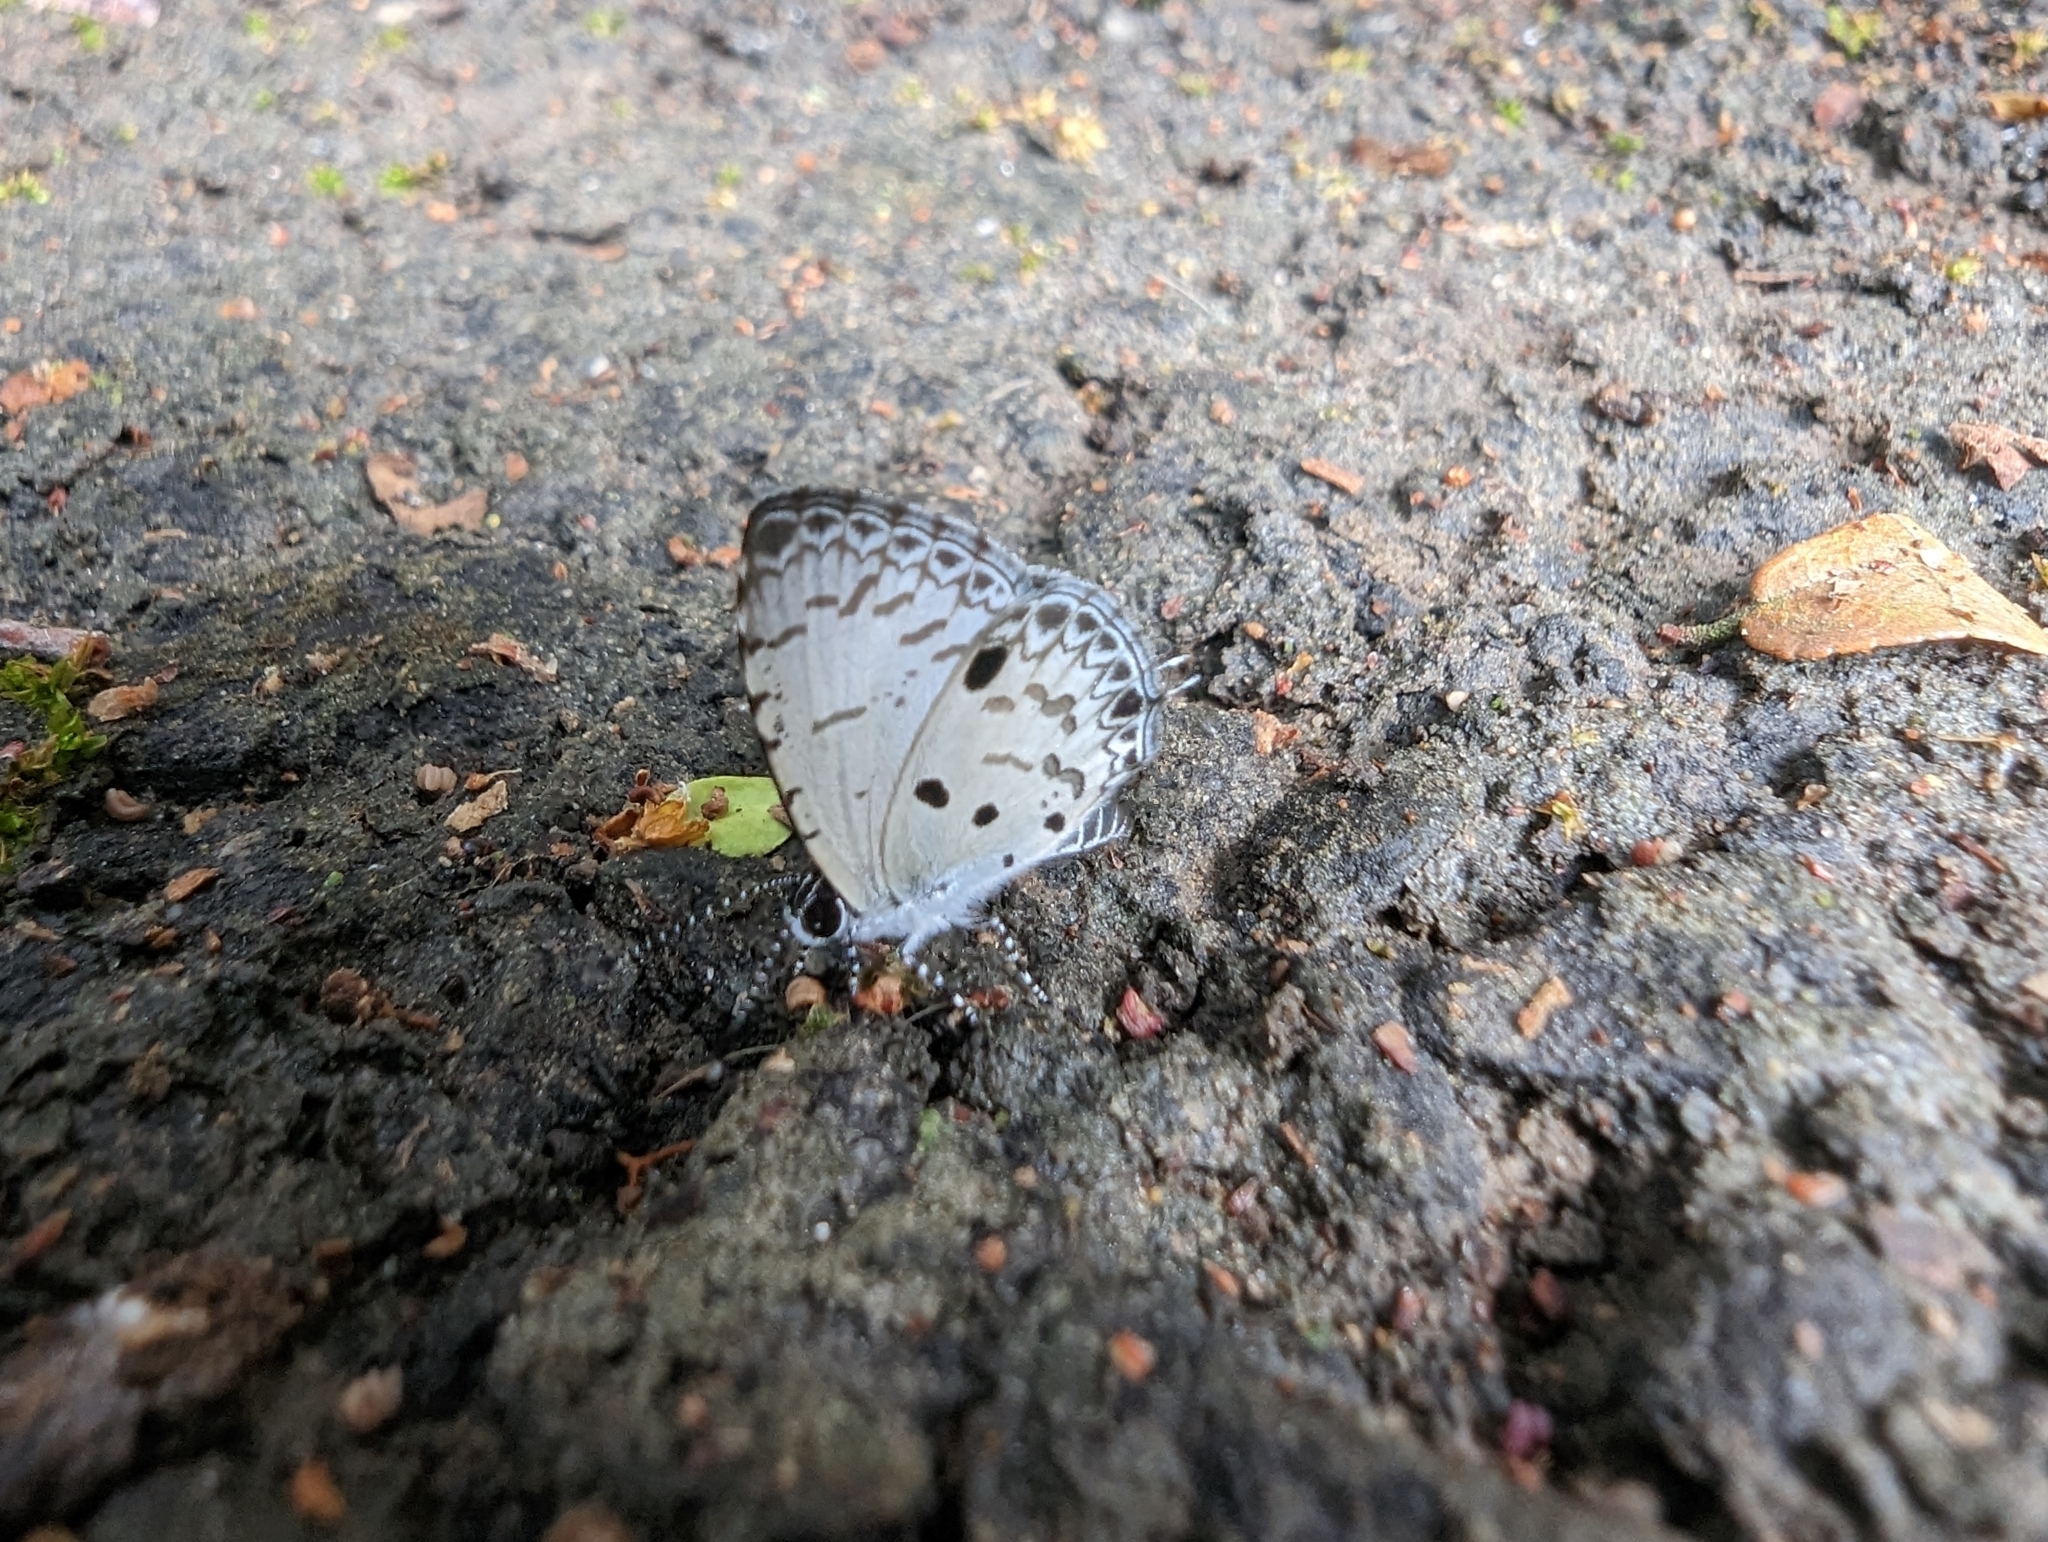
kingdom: Animalia
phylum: Arthropoda
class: Insecta
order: Lepidoptera
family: Lycaenidae
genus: Megisba
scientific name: Megisba malaya
